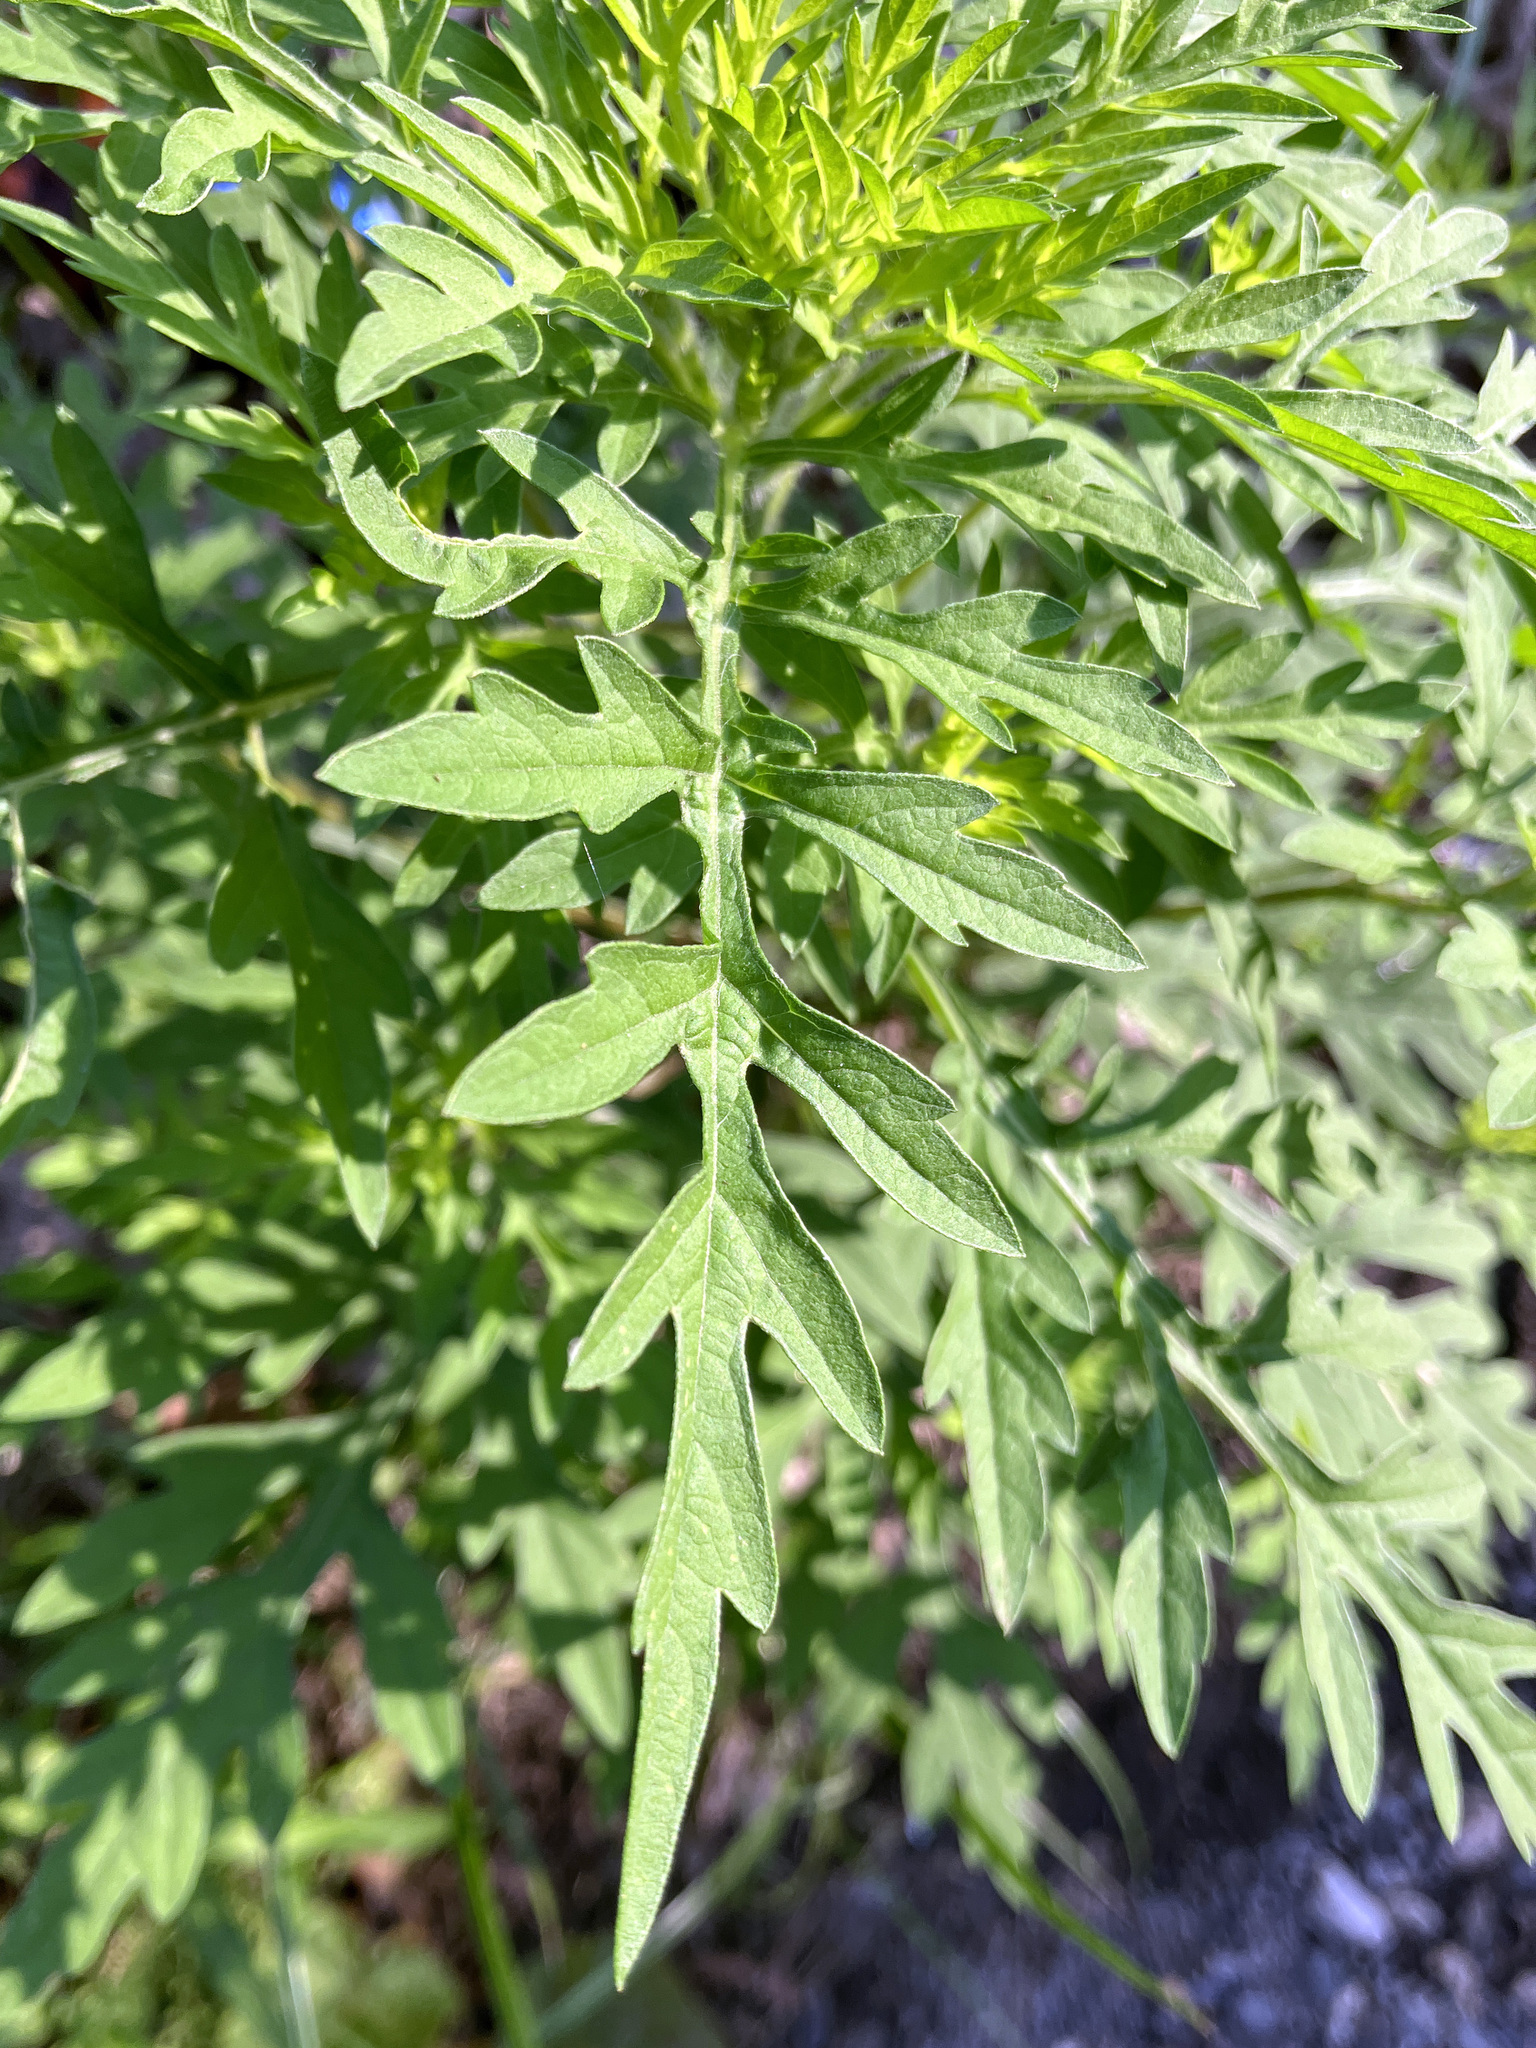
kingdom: Plantae
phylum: Tracheophyta
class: Magnoliopsida
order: Asterales
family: Asteraceae
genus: Ambrosia
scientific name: Ambrosia artemisiifolia
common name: Annual ragweed
